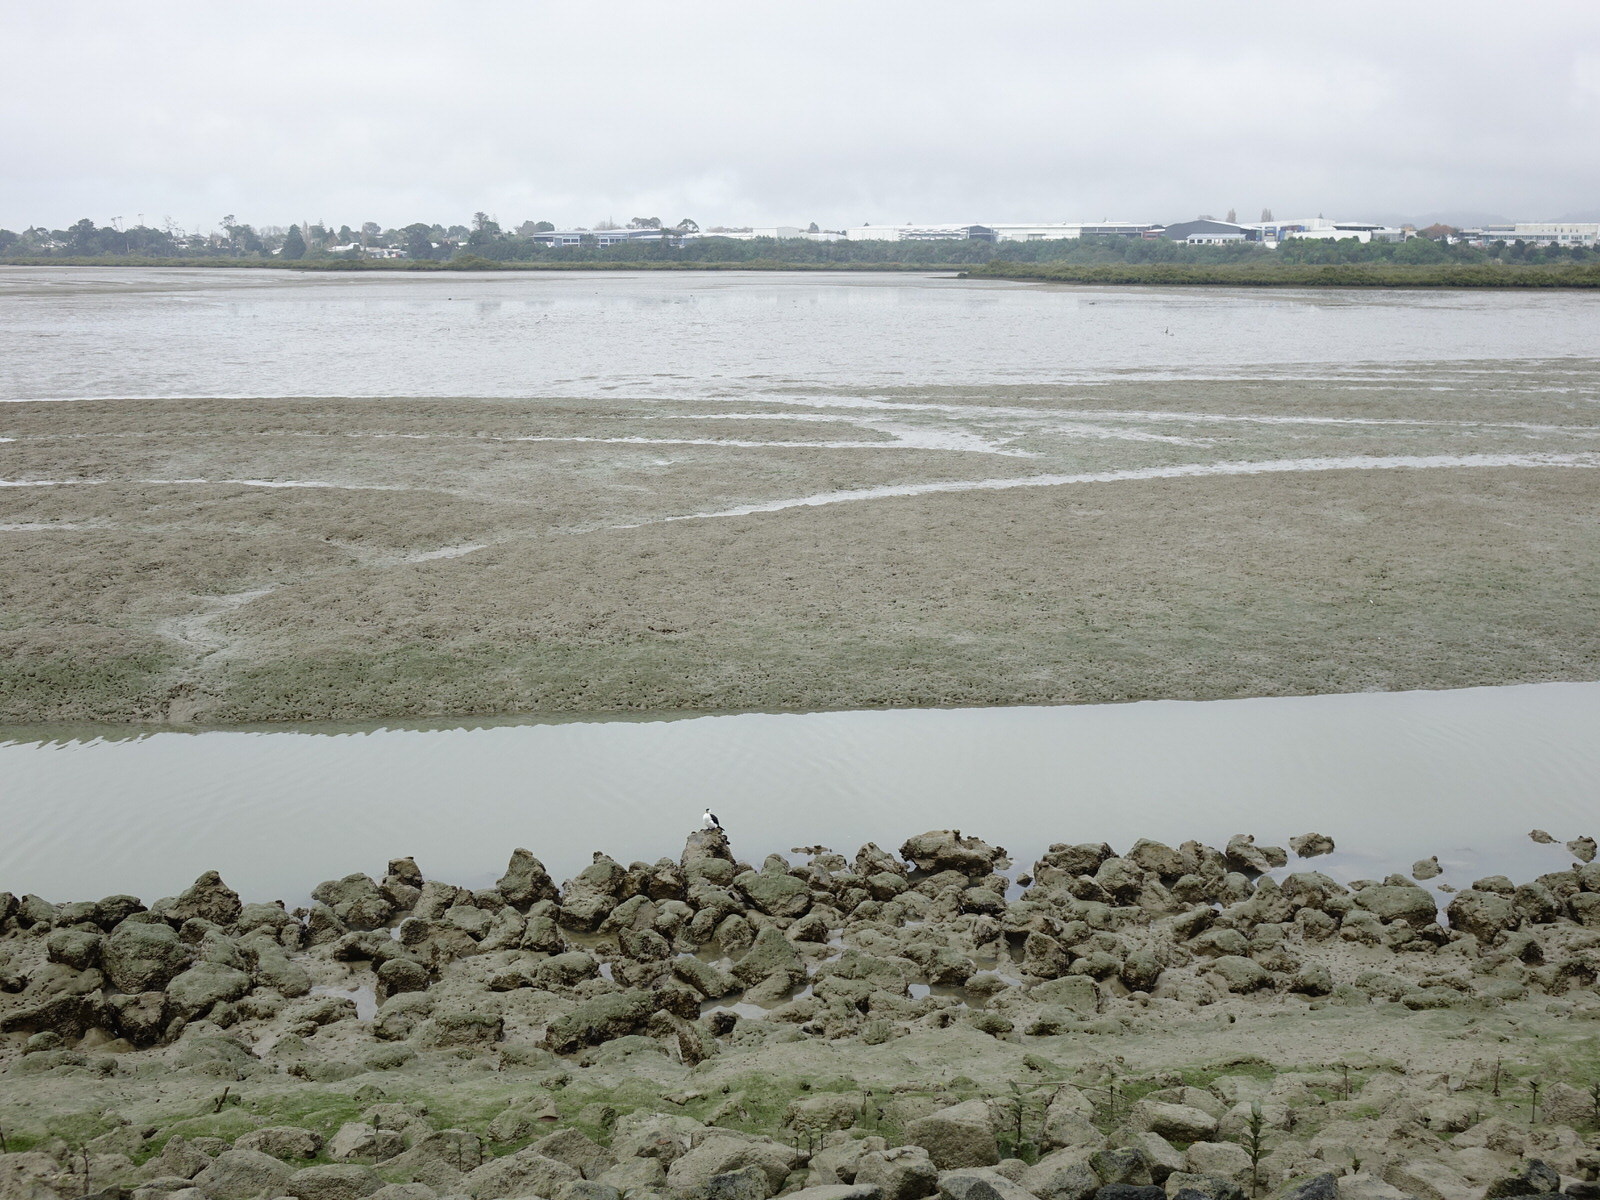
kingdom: Animalia
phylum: Chordata
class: Aves
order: Suliformes
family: Phalacrocoracidae
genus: Microcarbo
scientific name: Microcarbo melanoleucos
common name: Little pied cormorant
